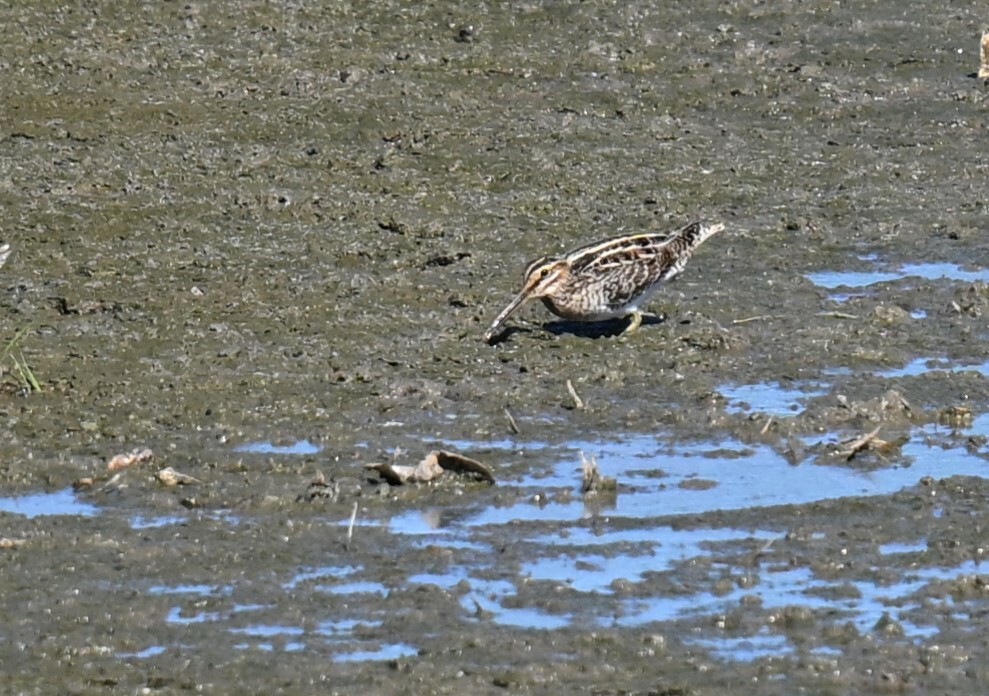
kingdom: Animalia
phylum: Chordata
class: Aves
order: Charadriiformes
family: Scolopacidae
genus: Gallinago
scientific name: Gallinago delicata
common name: Wilson's snipe
